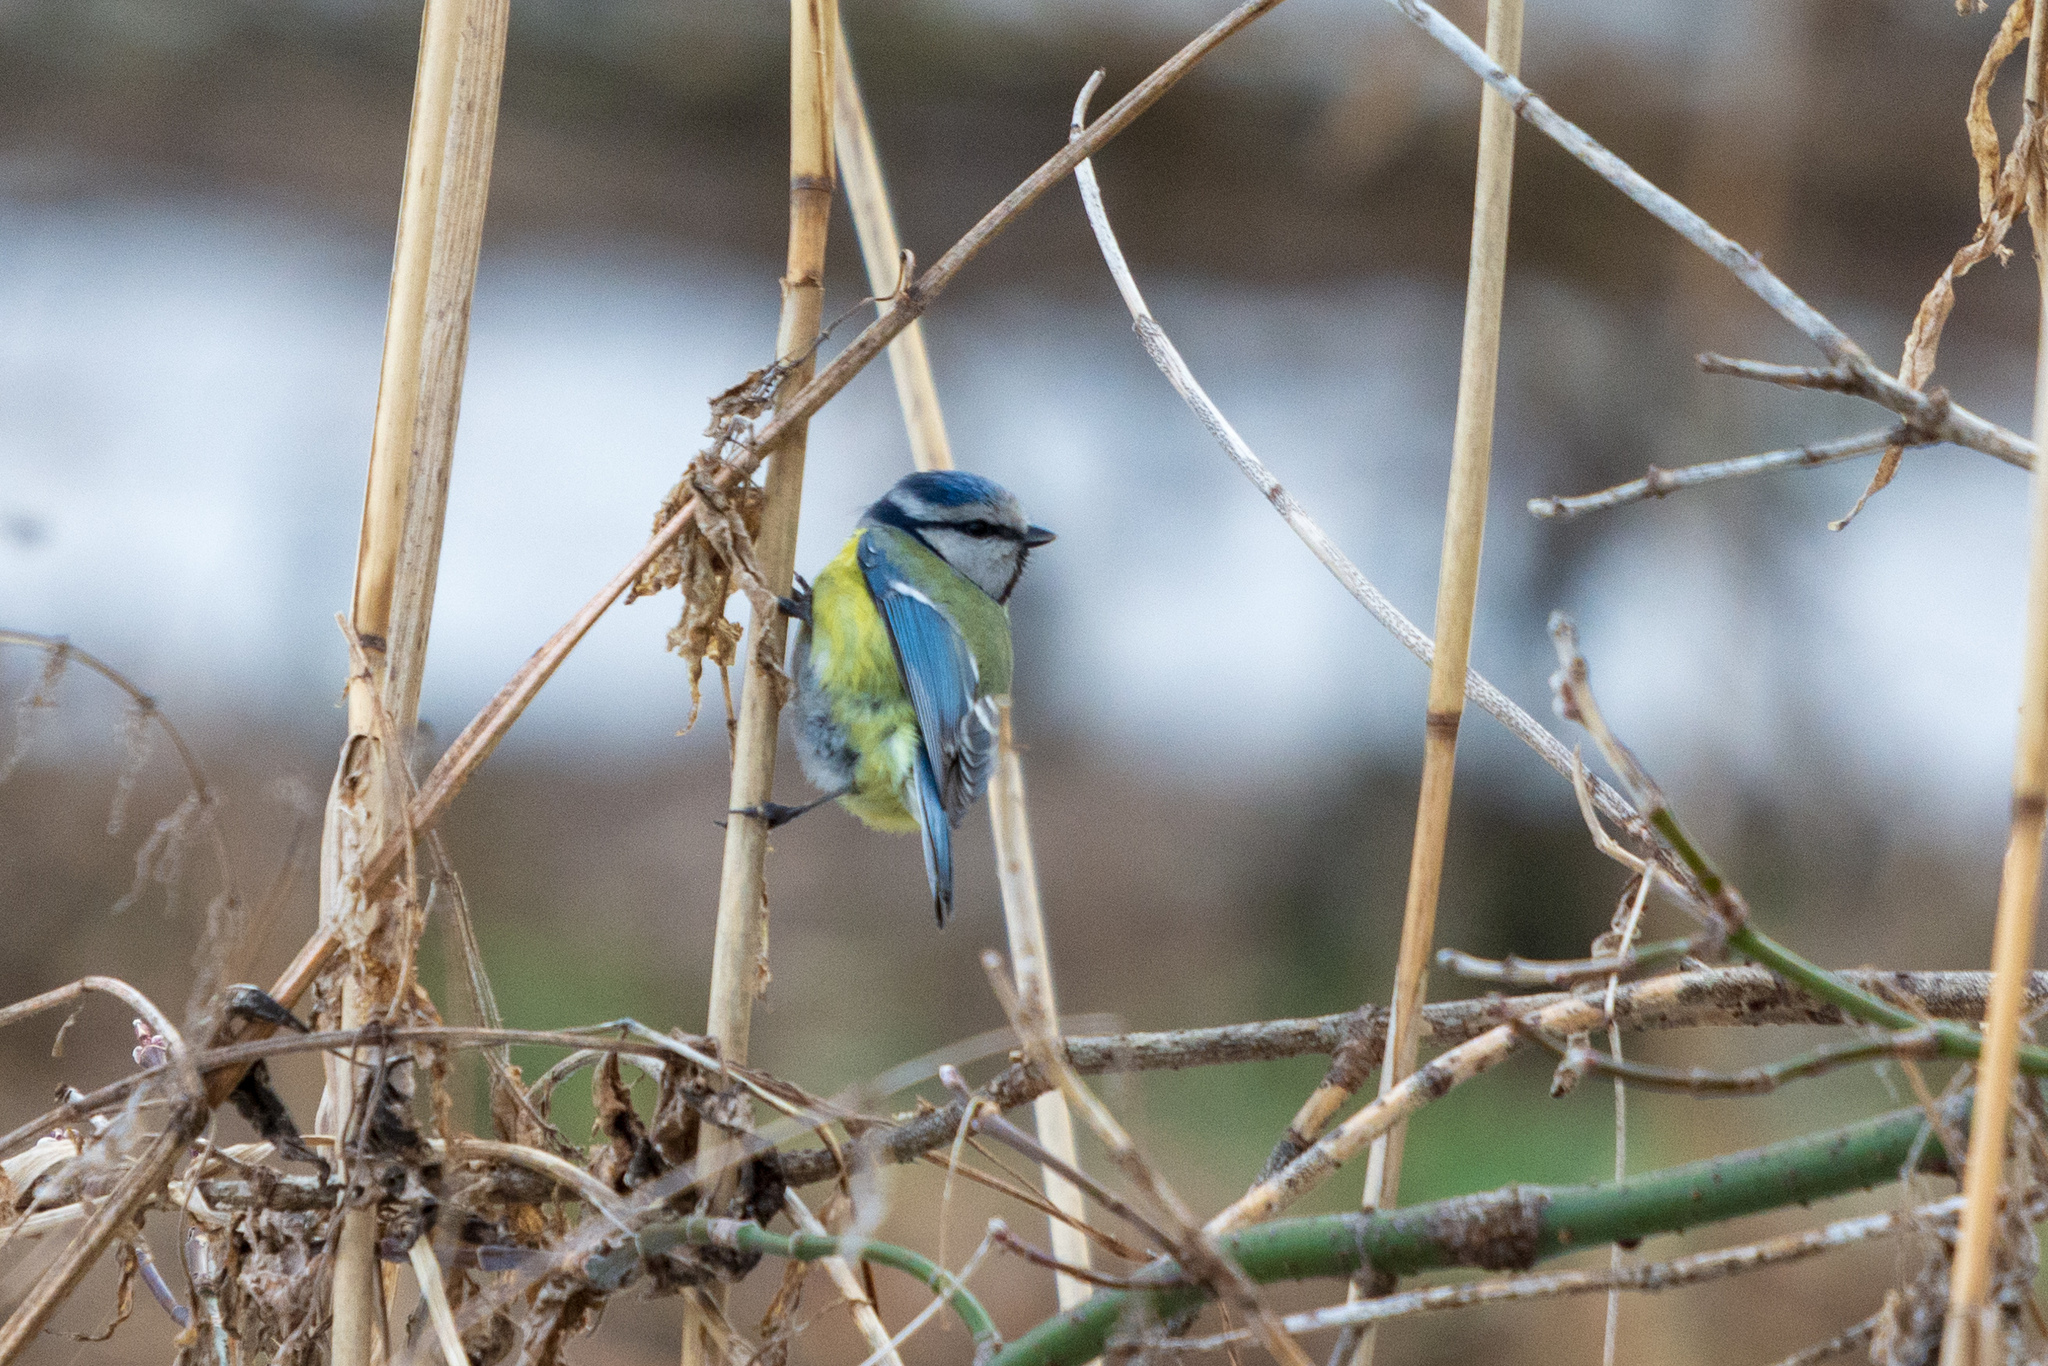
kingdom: Animalia
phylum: Chordata
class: Aves
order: Passeriformes
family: Paridae
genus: Cyanistes
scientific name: Cyanistes caeruleus
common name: Eurasian blue tit
